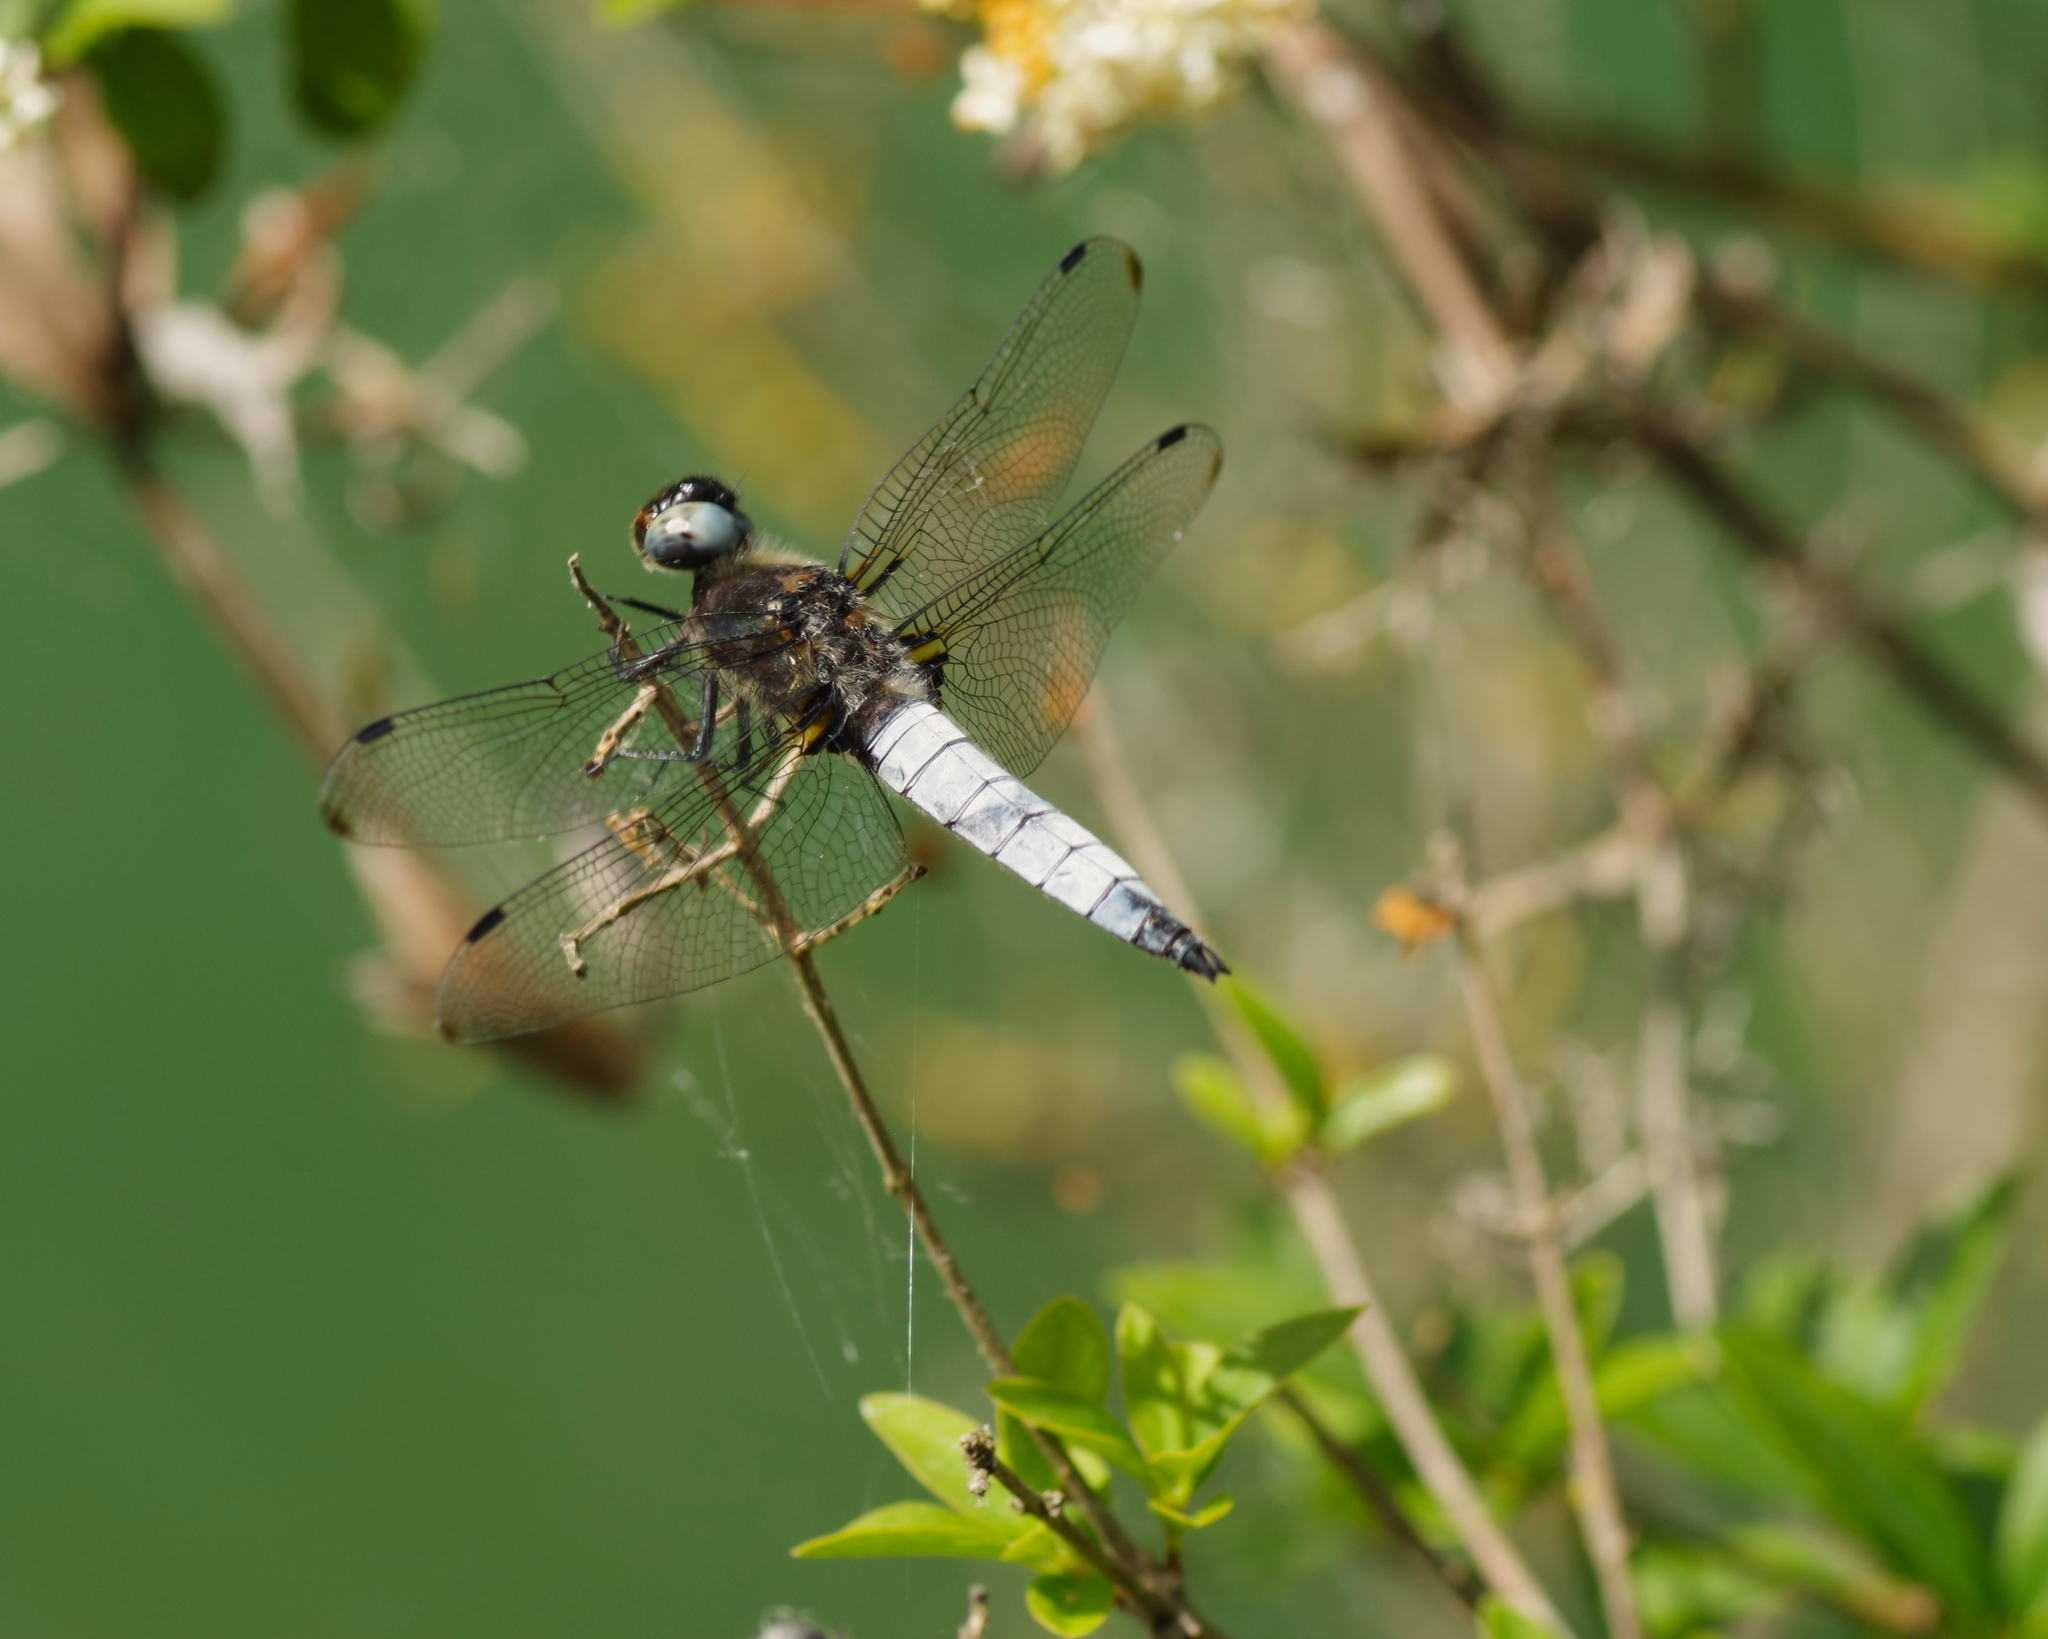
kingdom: Animalia
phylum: Arthropoda
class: Insecta
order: Odonata
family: Libellulidae
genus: Libellula
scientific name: Libellula fulva
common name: Blue chaser
